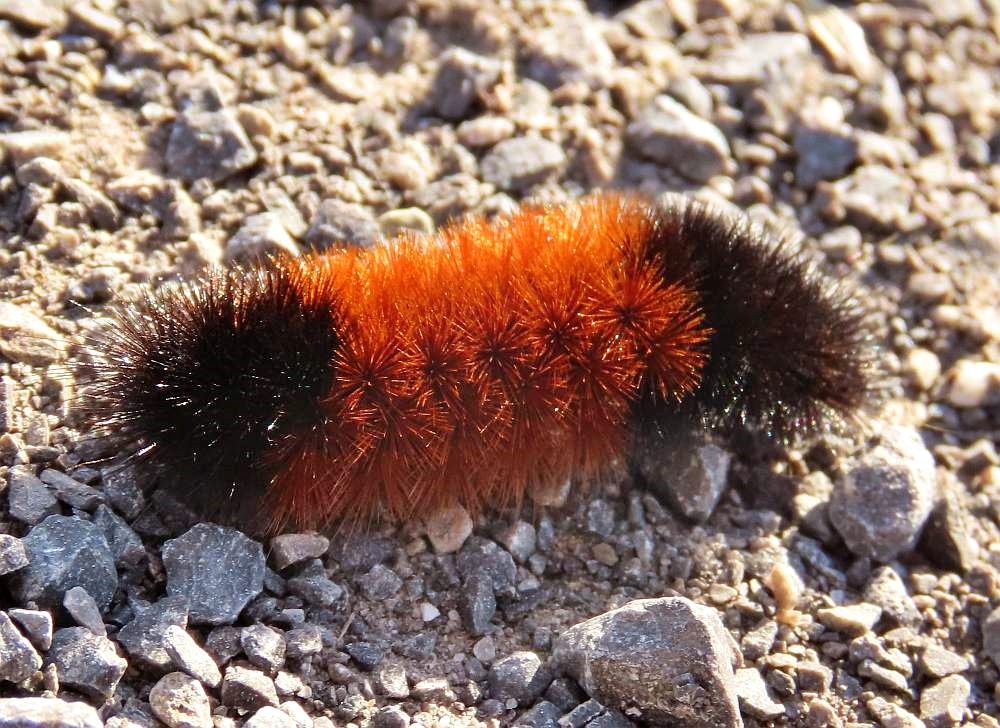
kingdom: Animalia
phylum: Arthropoda
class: Insecta
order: Lepidoptera
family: Erebidae
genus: Pyrrharctia
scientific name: Pyrrharctia isabella
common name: Isabella tiger moth
